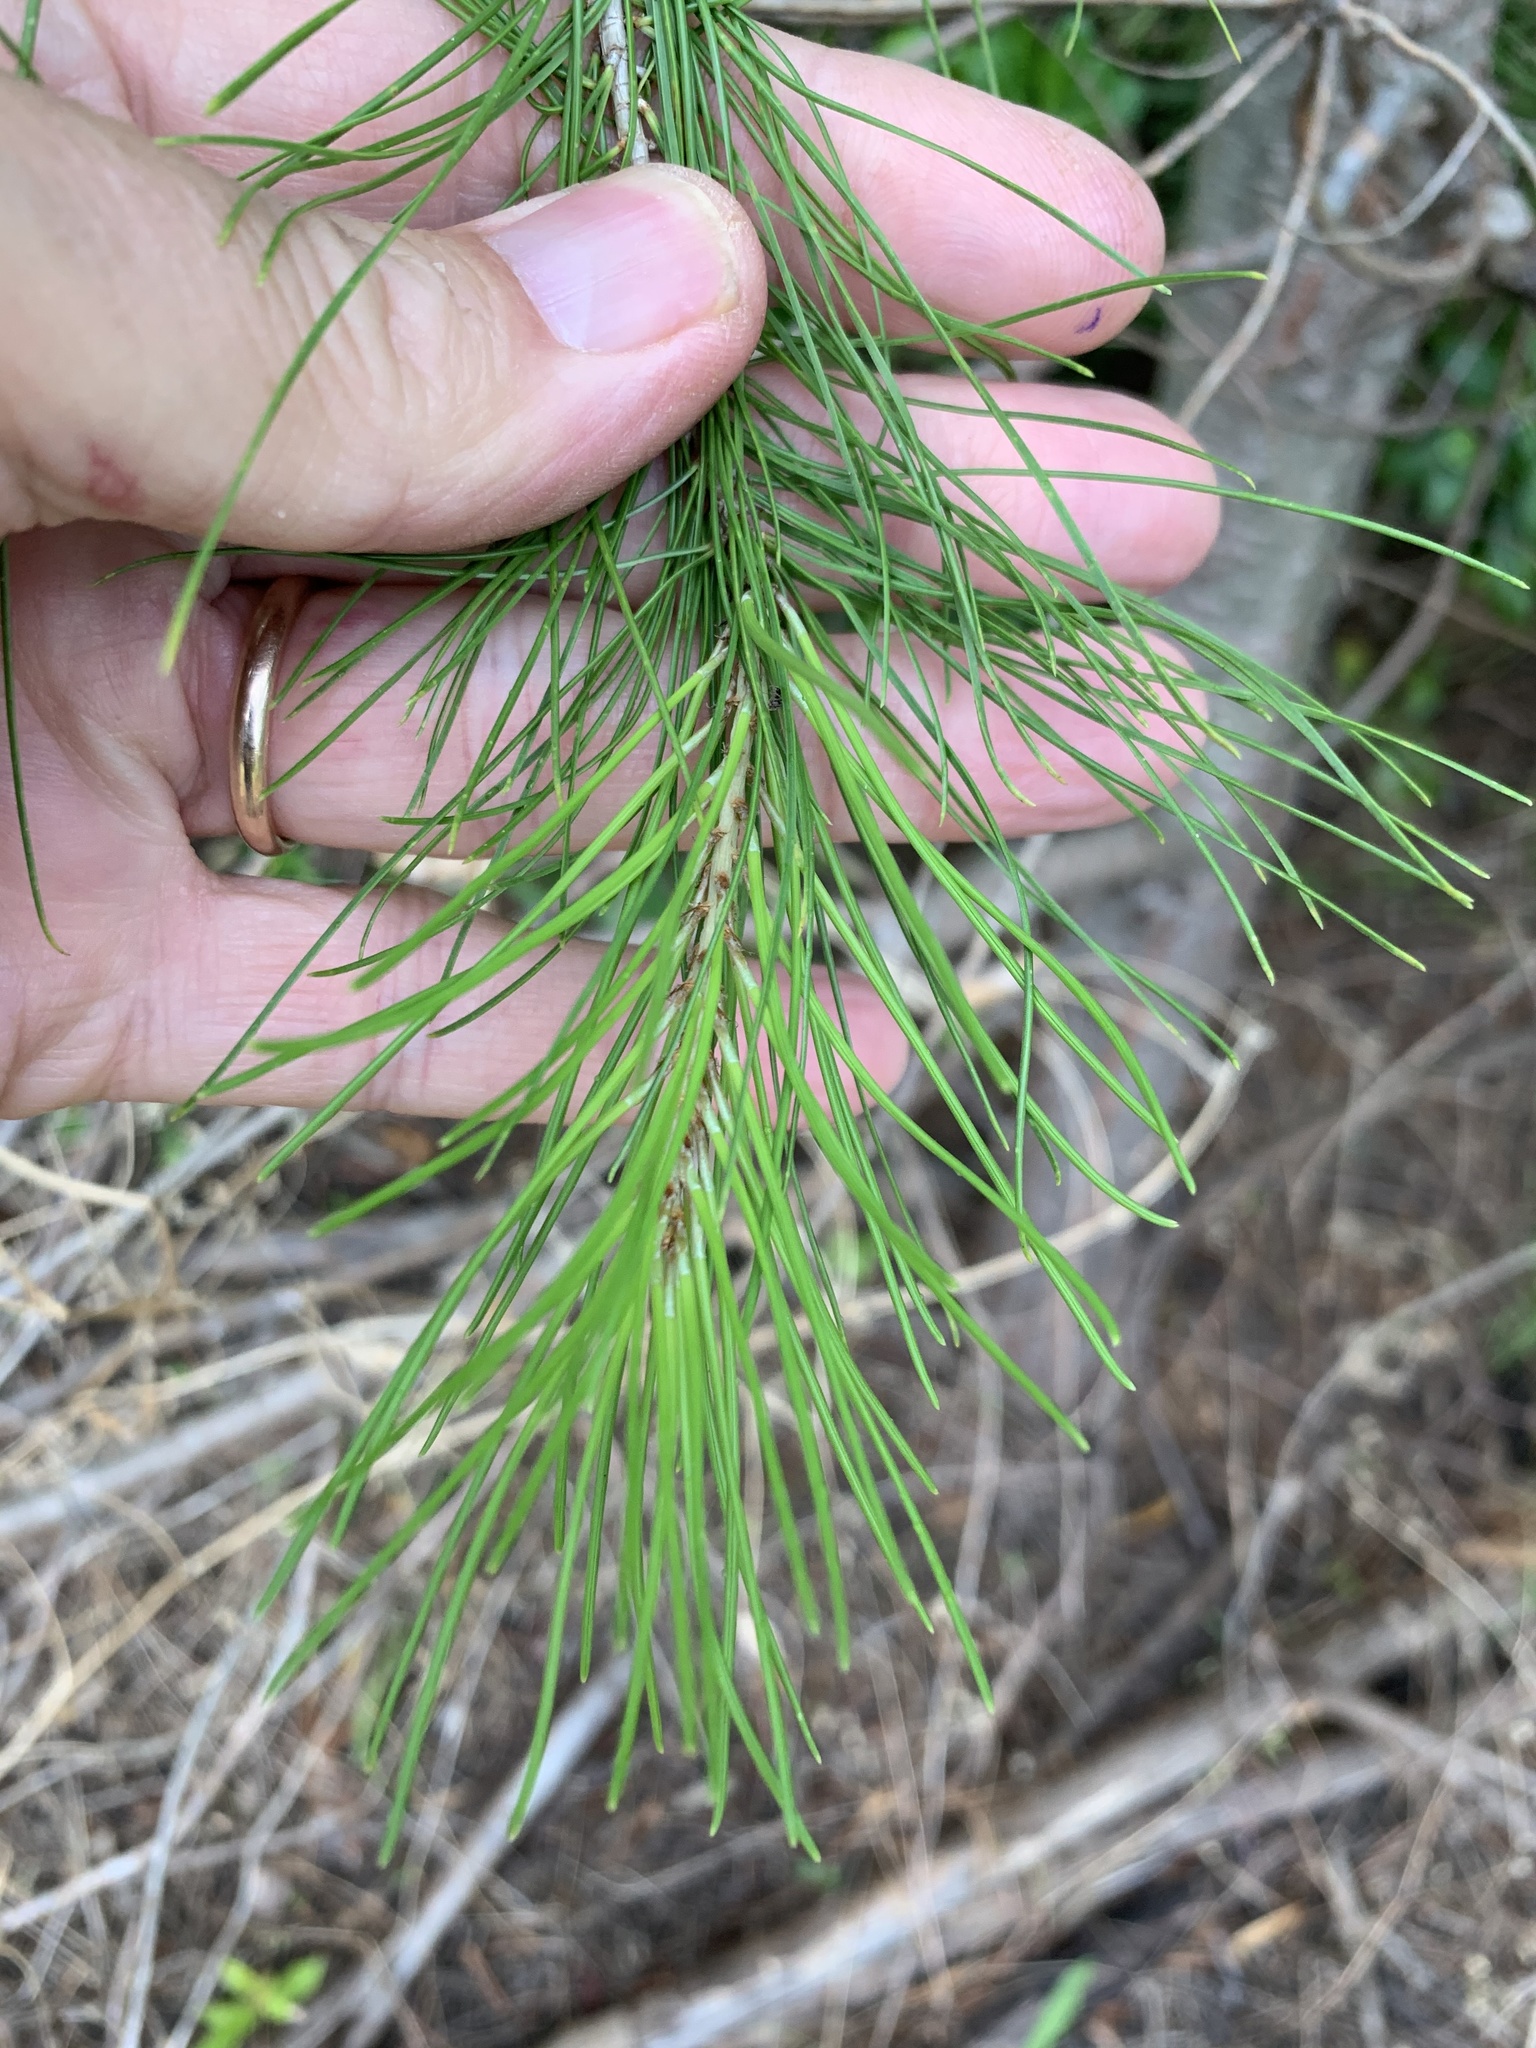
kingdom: Plantae
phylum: Tracheophyta
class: Pinopsida
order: Pinales
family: Pinaceae
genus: Pinus
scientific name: Pinus halepensis
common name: Aleppo pine
